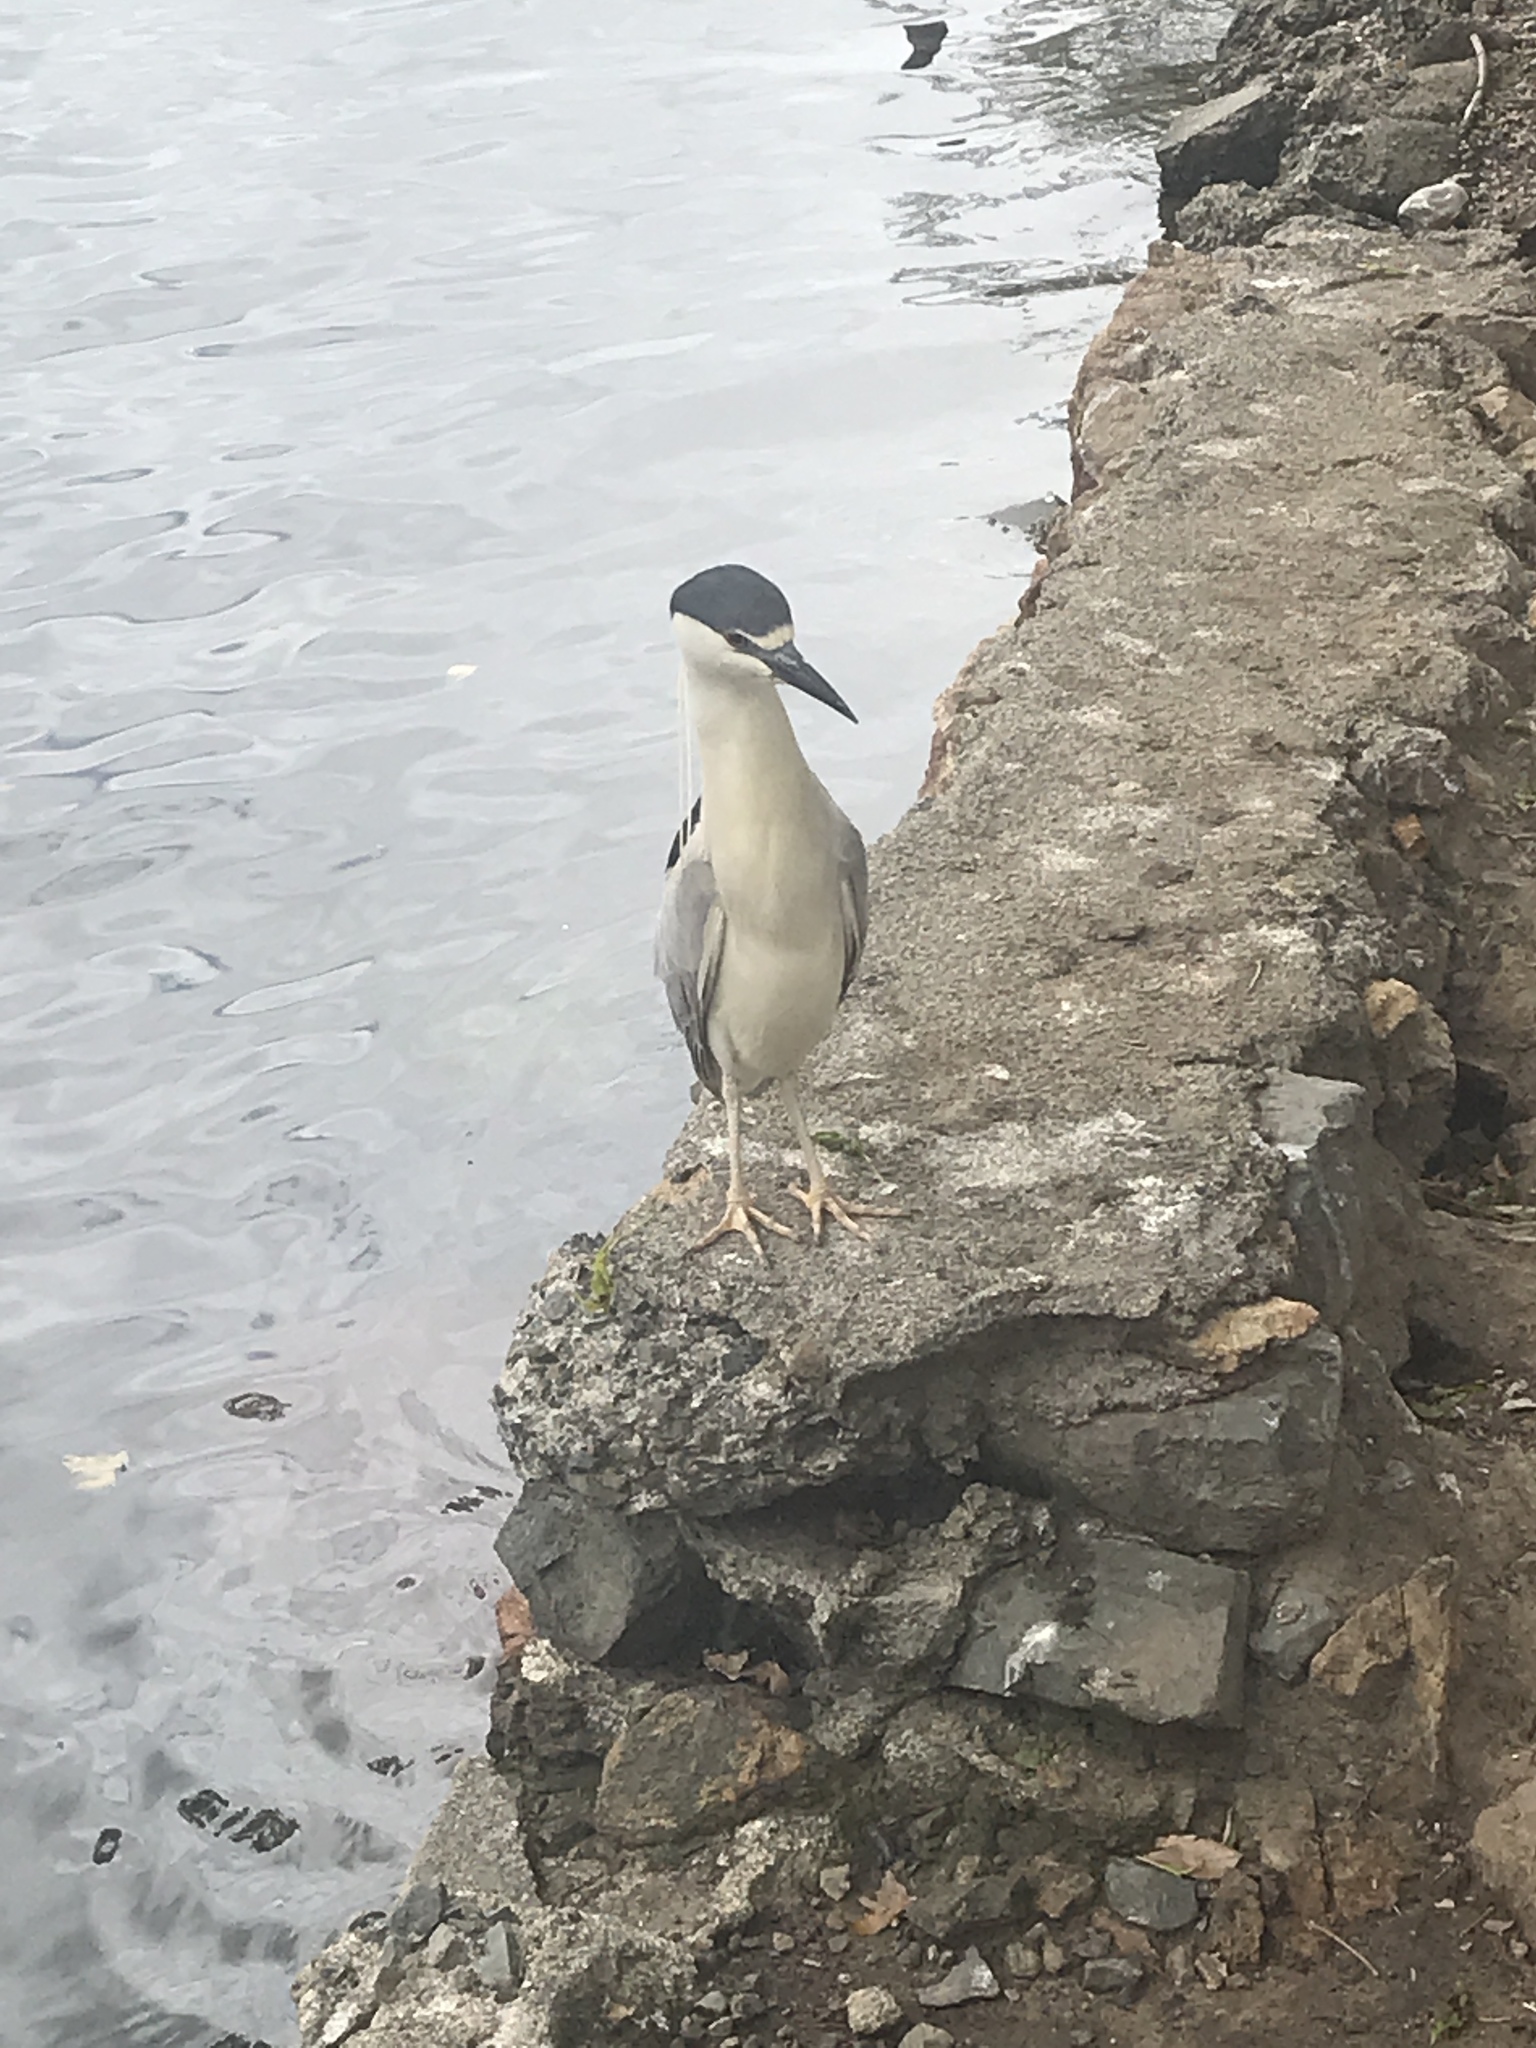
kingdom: Animalia
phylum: Chordata
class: Aves
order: Pelecaniformes
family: Ardeidae
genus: Nycticorax
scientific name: Nycticorax nycticorax
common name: Black-crowned night heron
